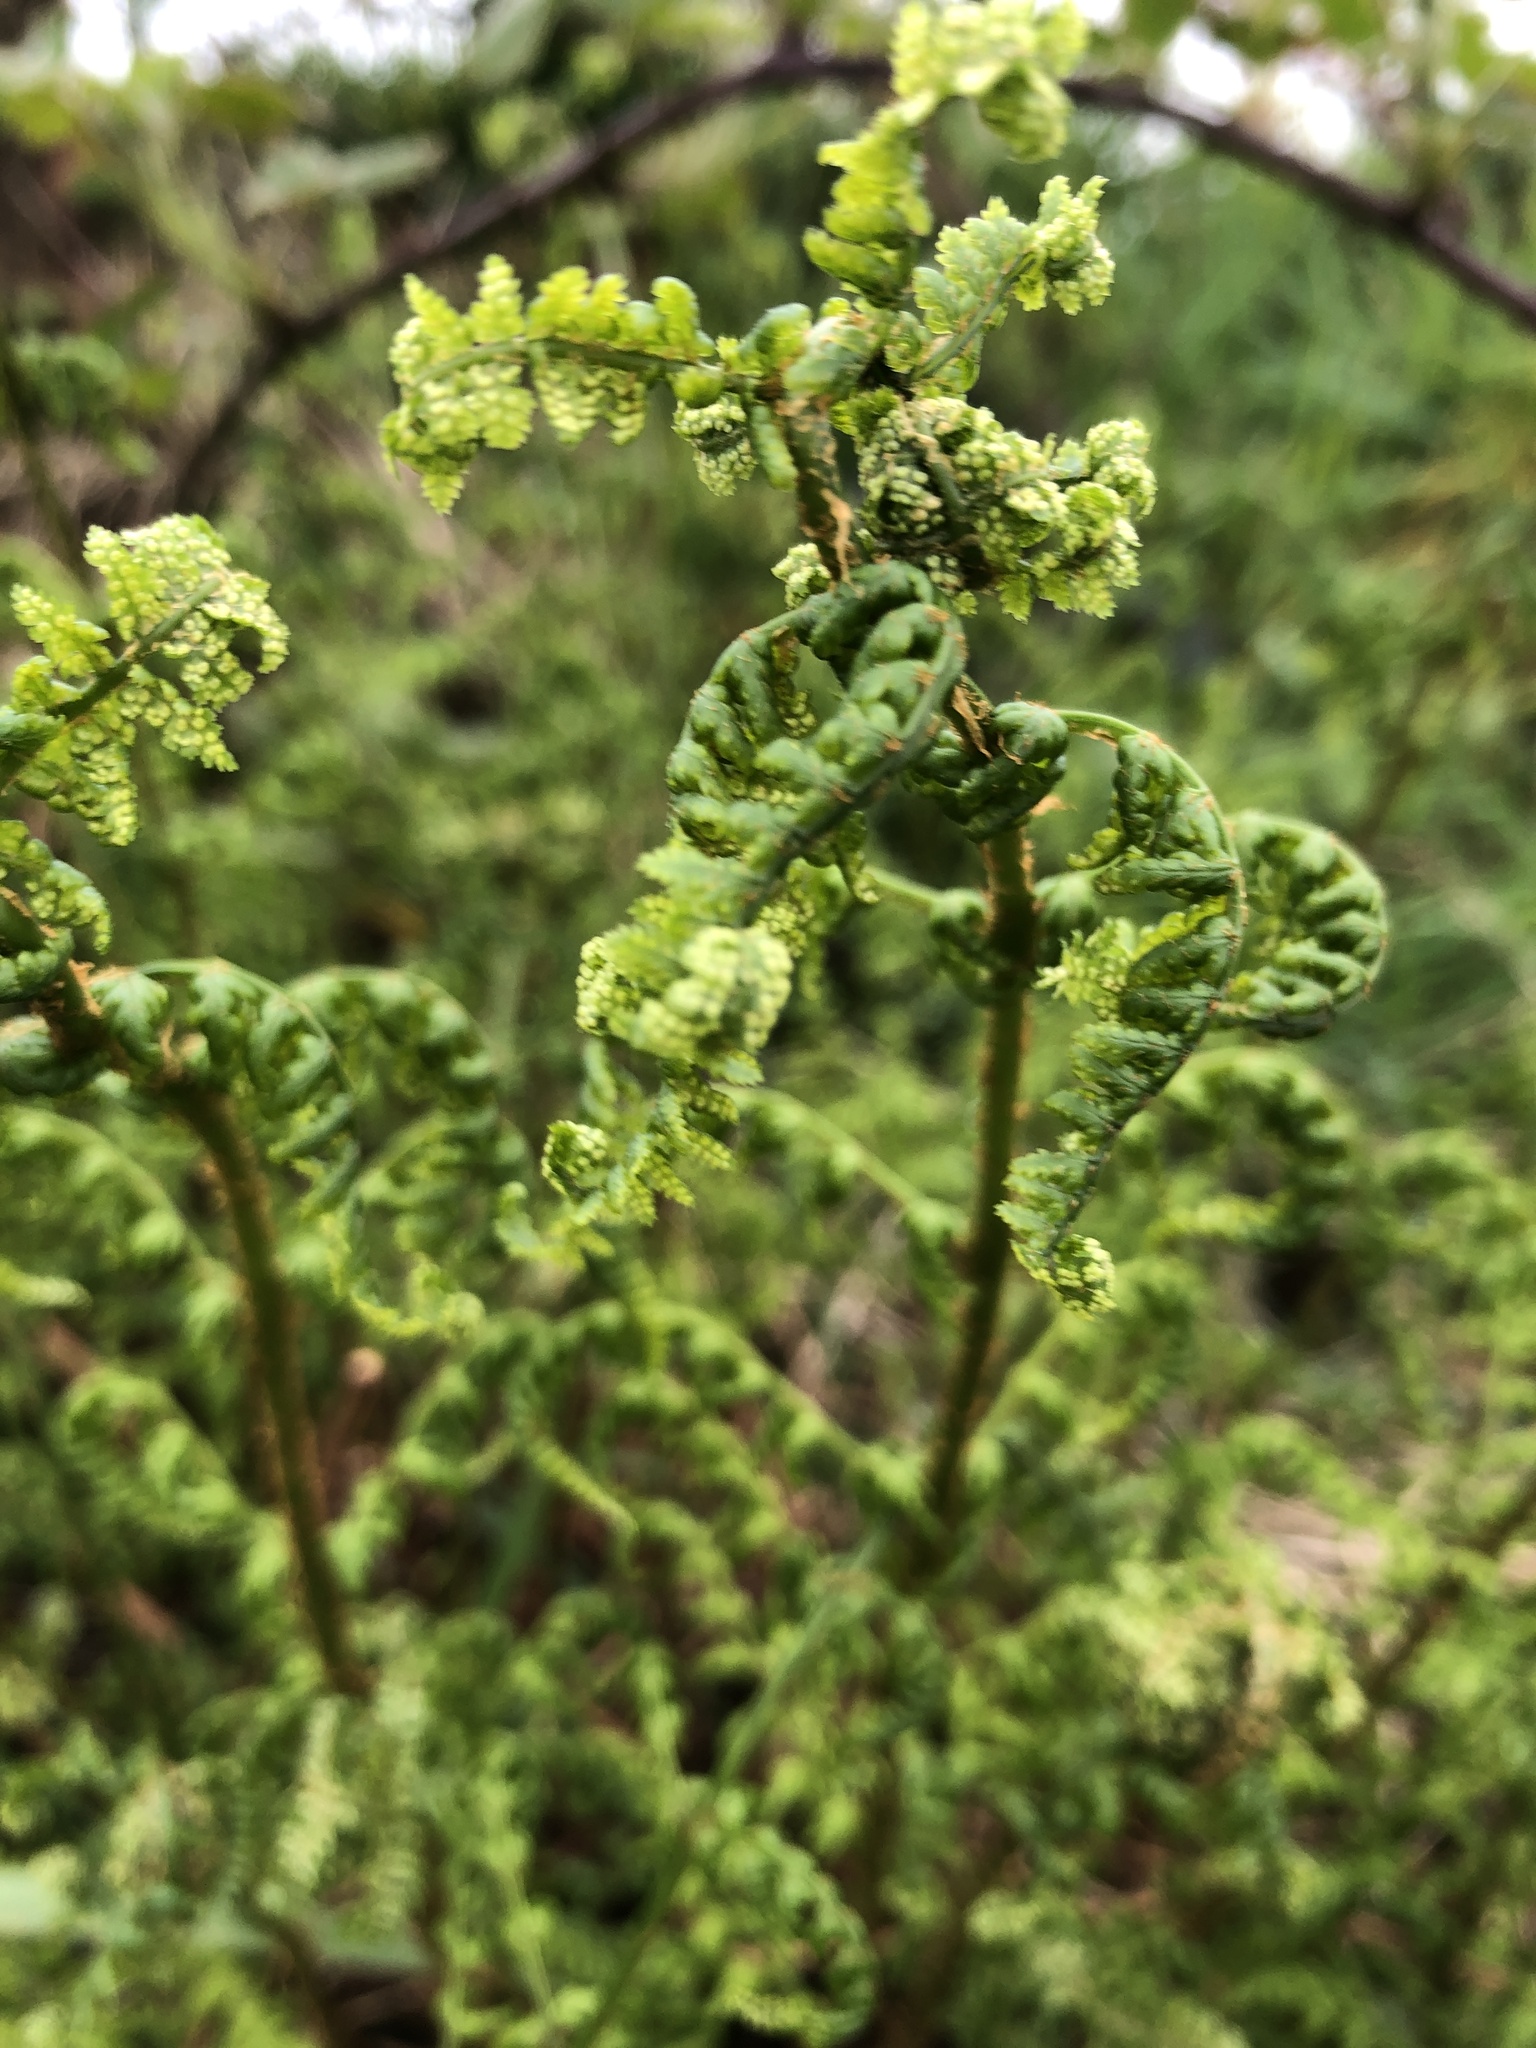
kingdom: Plantae
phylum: Tracheophyta
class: Polypodiopsida
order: Polypodiales
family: Dryopteridaceae
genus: Dryopteris
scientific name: Dryopteris dilatata
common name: Broad buckler-fern
